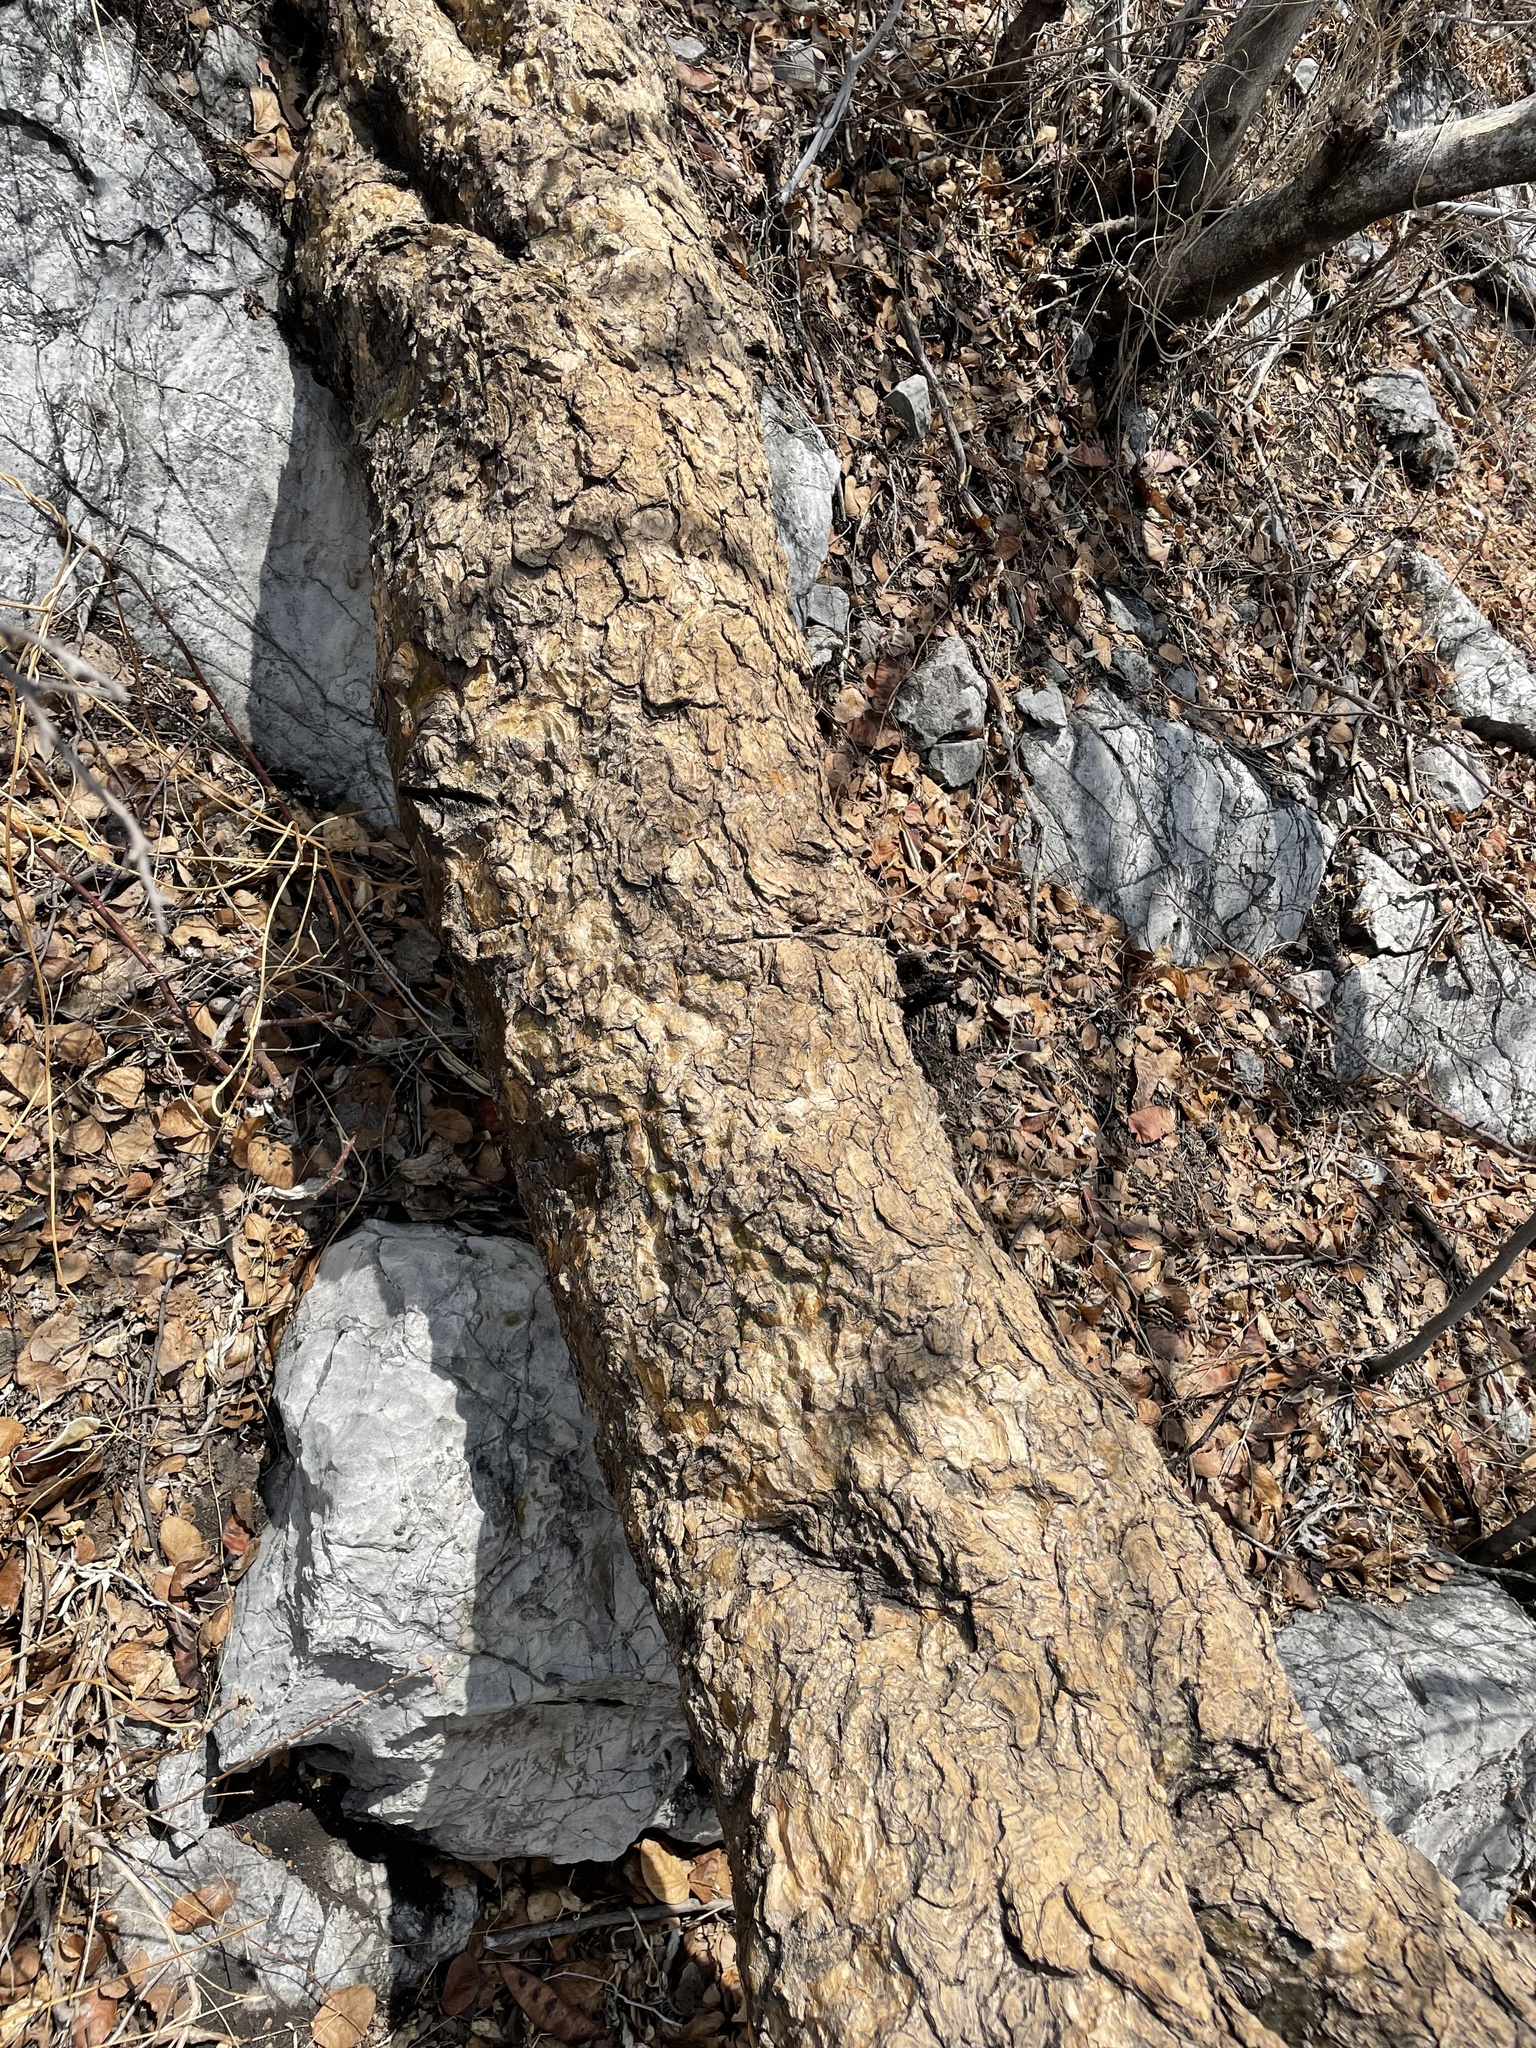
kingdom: Plantae
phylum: Tracheophyta
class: Magnoliopsida
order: Gentianales
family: Apocynaceae
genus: Plumeria
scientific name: Plumeria rubra
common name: Pagoda-tree
